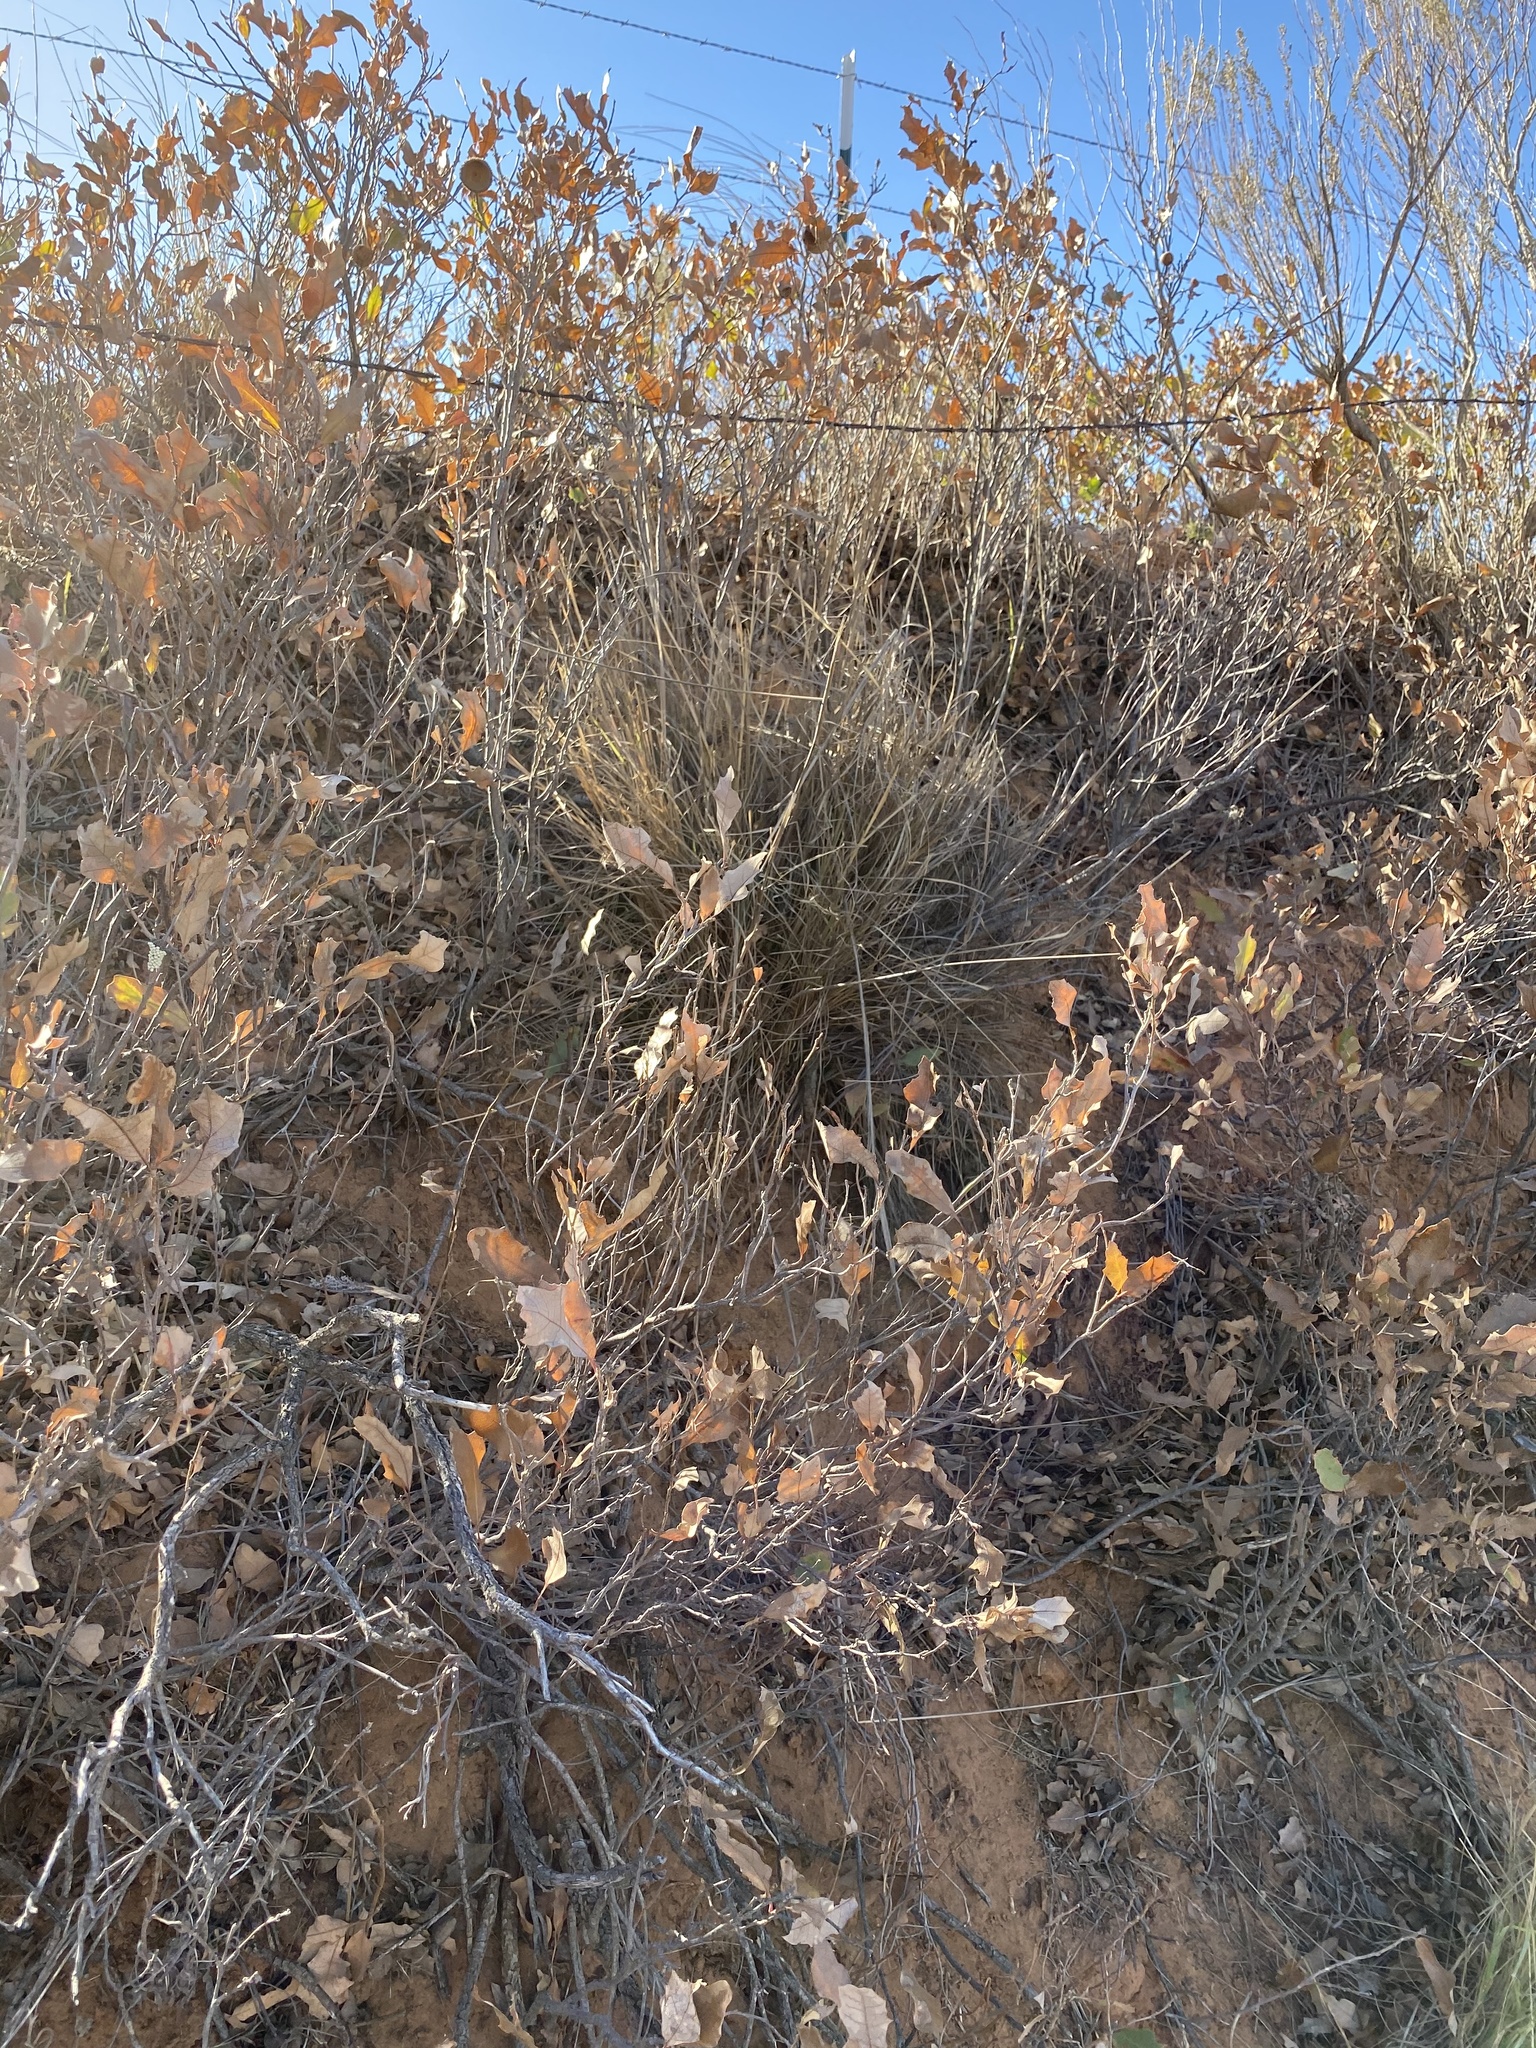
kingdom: Plantae
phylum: Tracheophyta
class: Magnoliopsida
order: Fagales
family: Fagaceae
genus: Quercus
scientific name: Quercus havardii
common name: Shinnery oak
